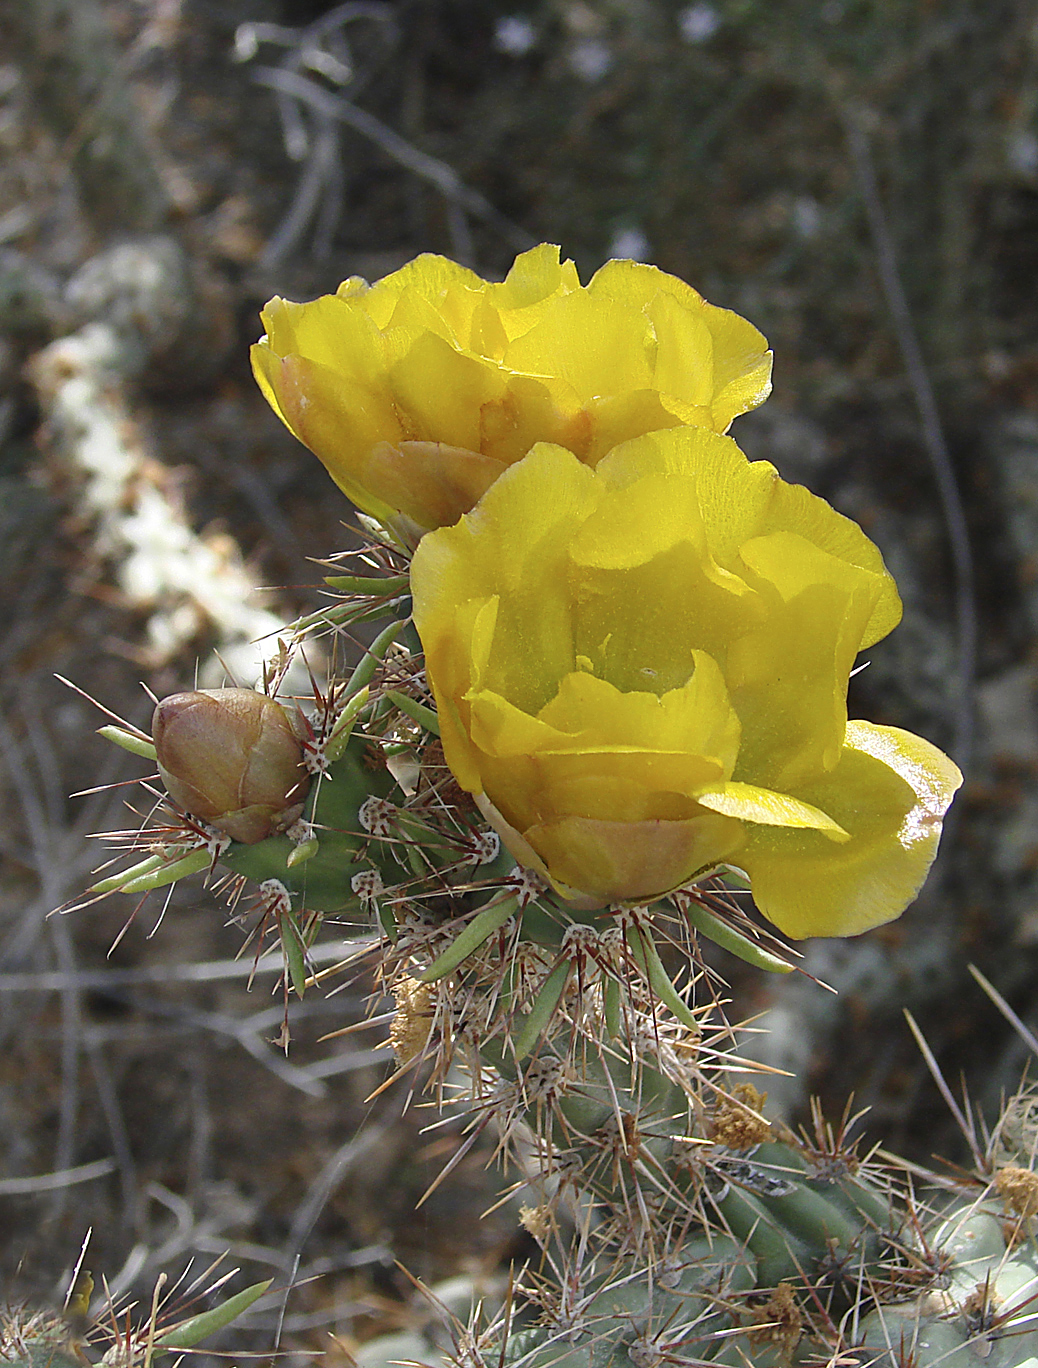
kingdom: Plantae
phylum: Tracheophyta
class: Magnoliopsida
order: Caryophyllales
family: Cactaceae
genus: Cylindropuntia
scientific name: Cylindropuntia acanthocarpa
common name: Buckhorn cholla
